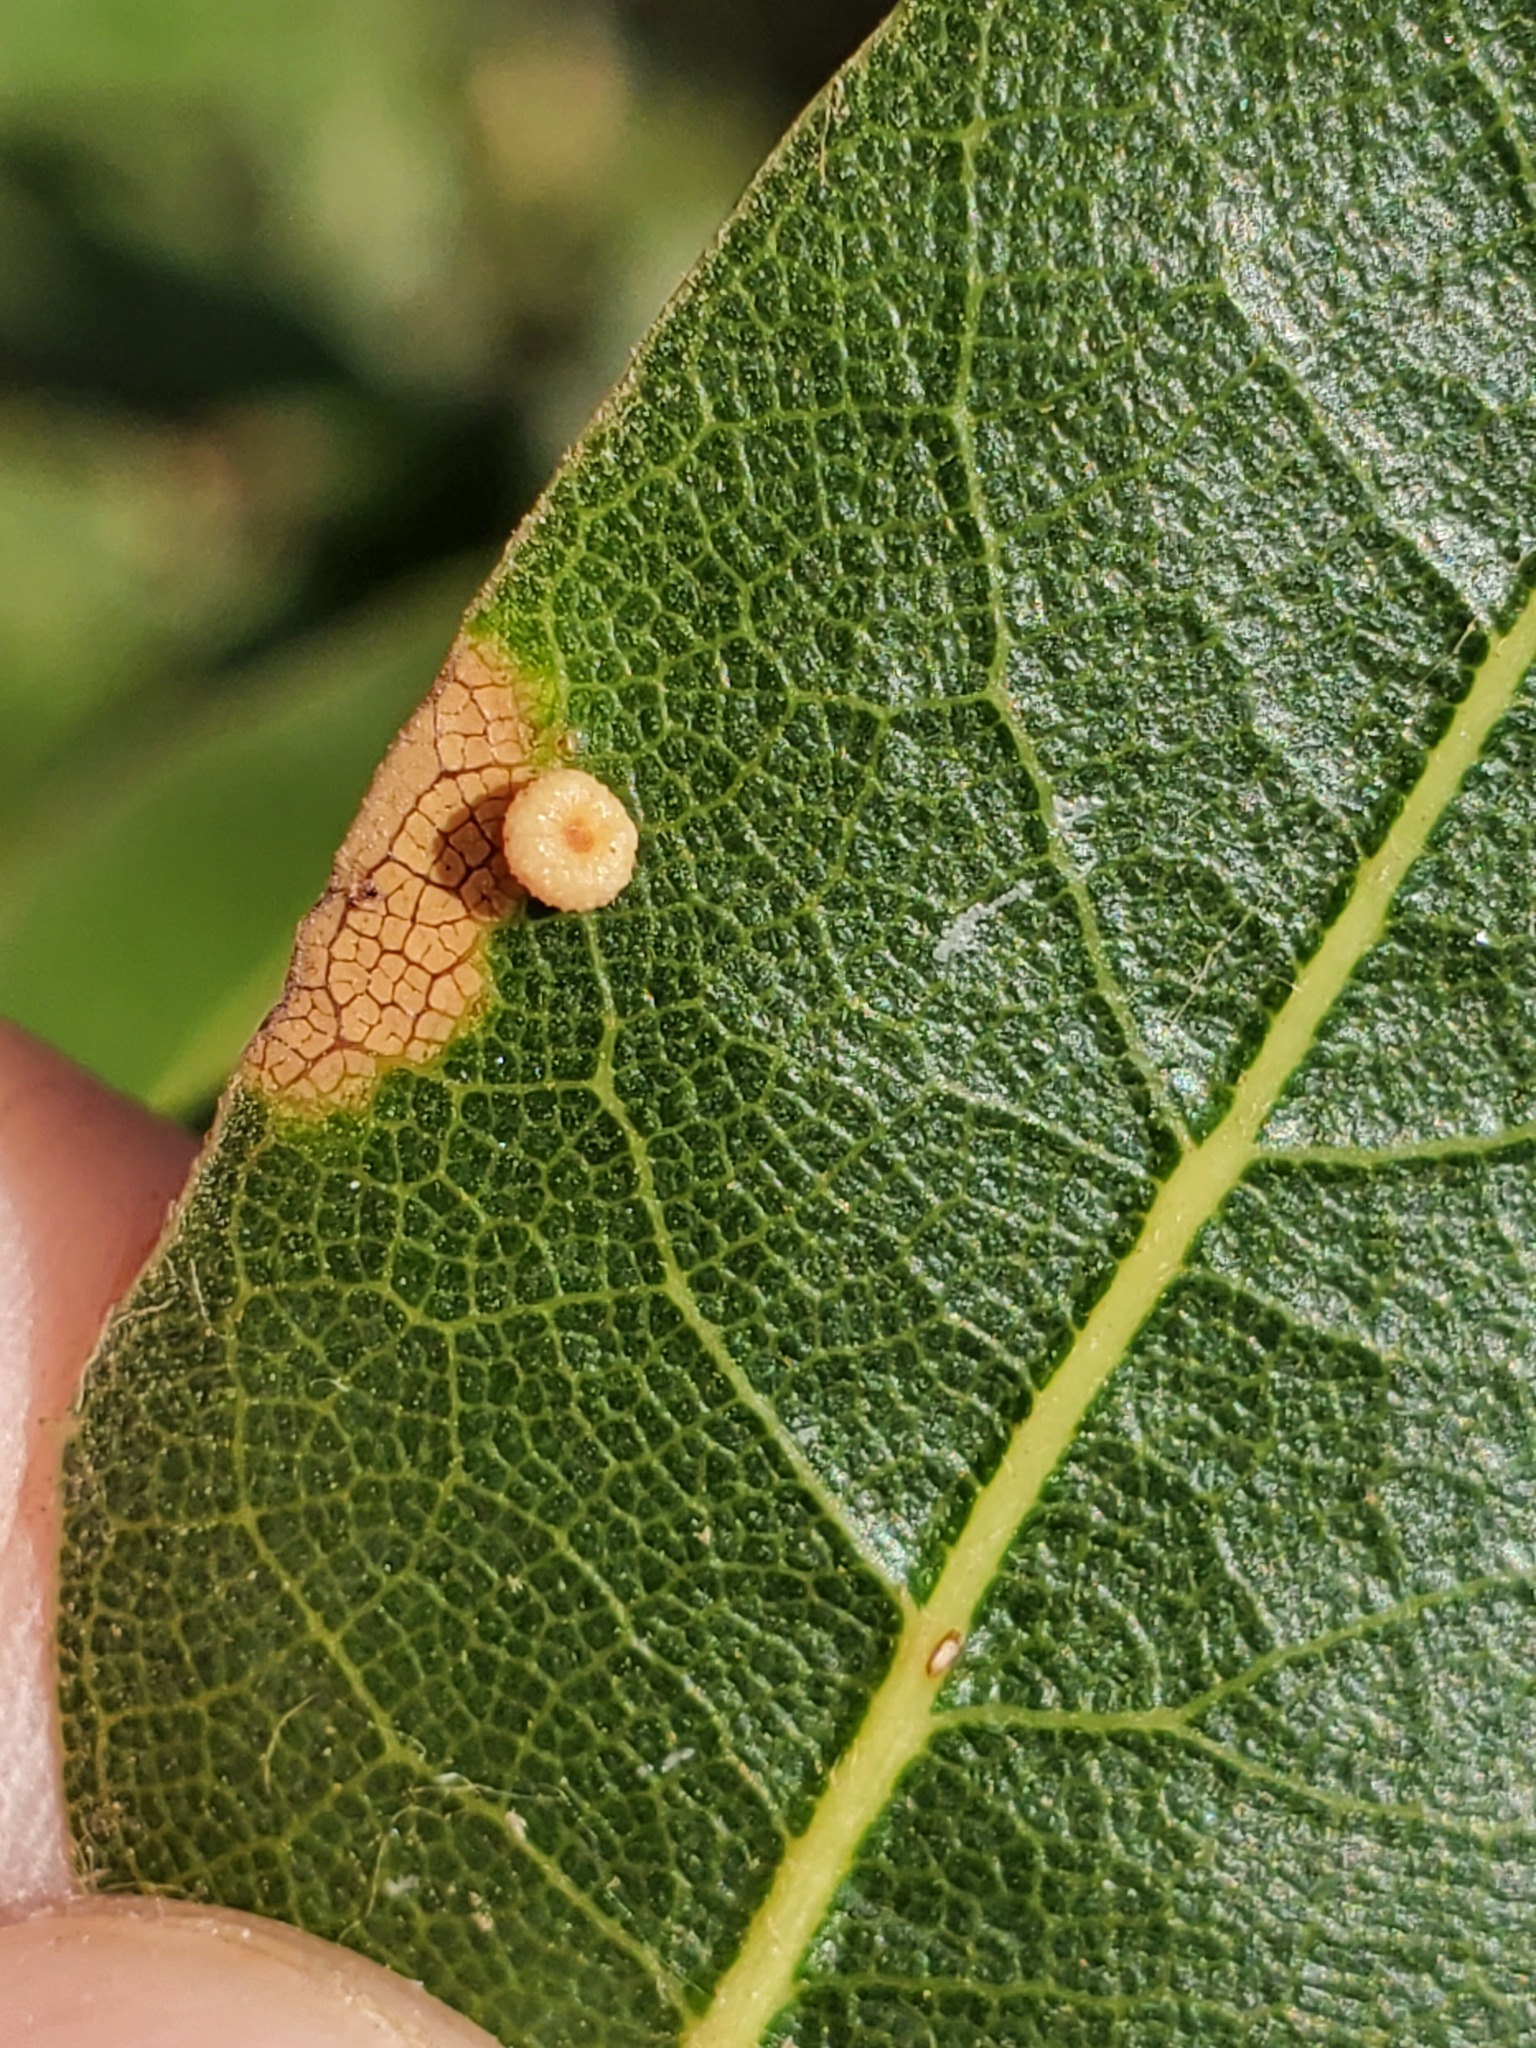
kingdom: Animalia
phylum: Arthropoda
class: Insecta
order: Hymenoptera
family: Cynipidae
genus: Dryocosmus
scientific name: Dryocosmus
